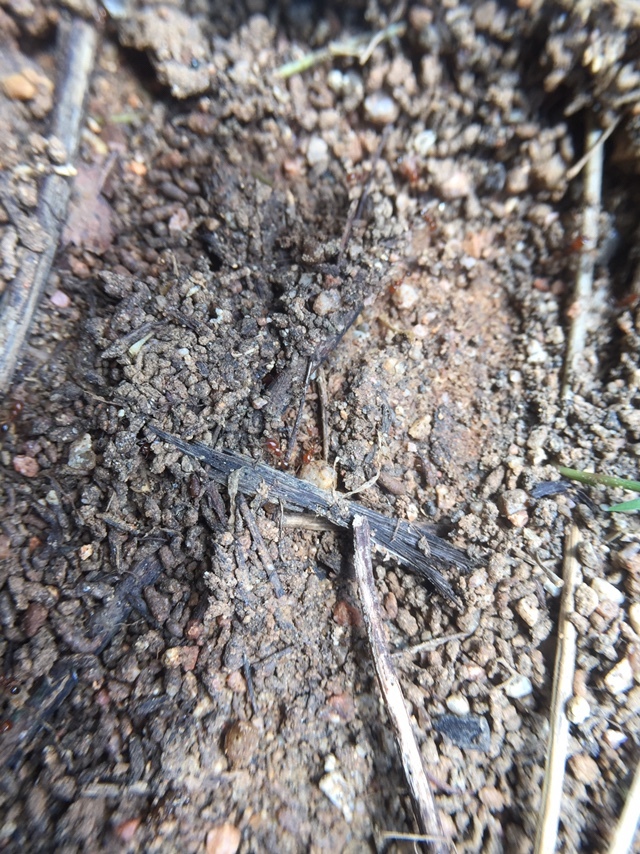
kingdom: Animalia
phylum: Arthropoda
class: Insecta
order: Hymenoptera
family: Formicidae
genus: Solenopsis
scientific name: Solenopsis geminata
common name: Tropical fire ant
